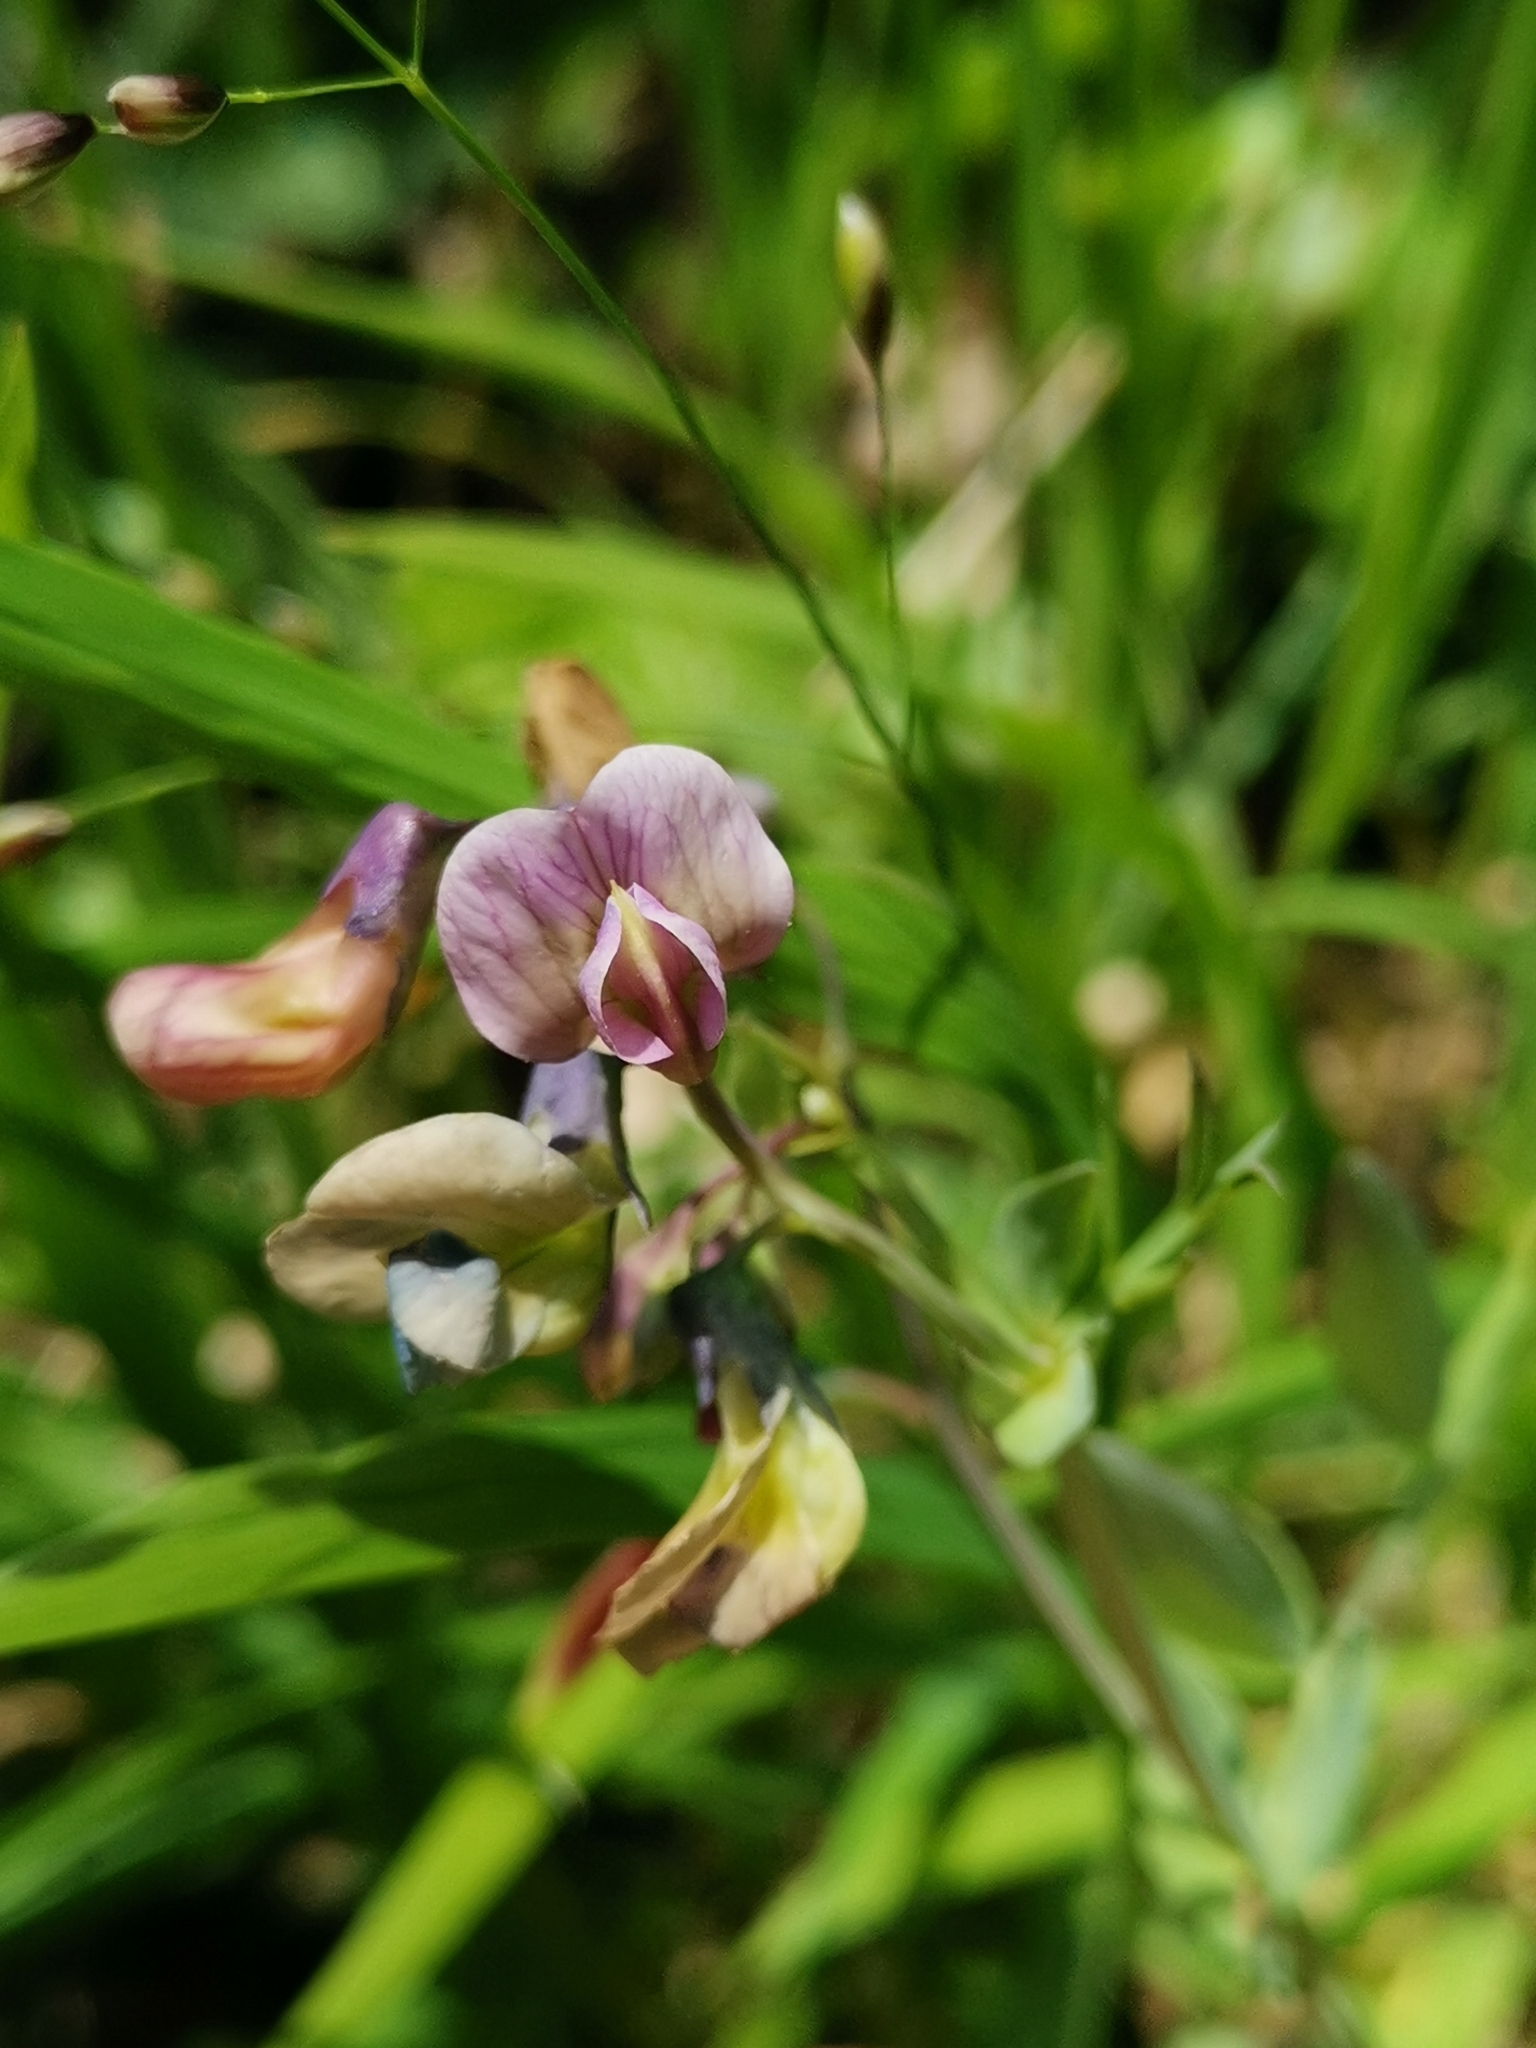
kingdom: Plantae
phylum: Tracheophyta
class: Magnoliopsida
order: Fabales
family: Fabaceae
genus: Lathyrus
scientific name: Lathyrus linifolius
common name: Bitter-vetch
